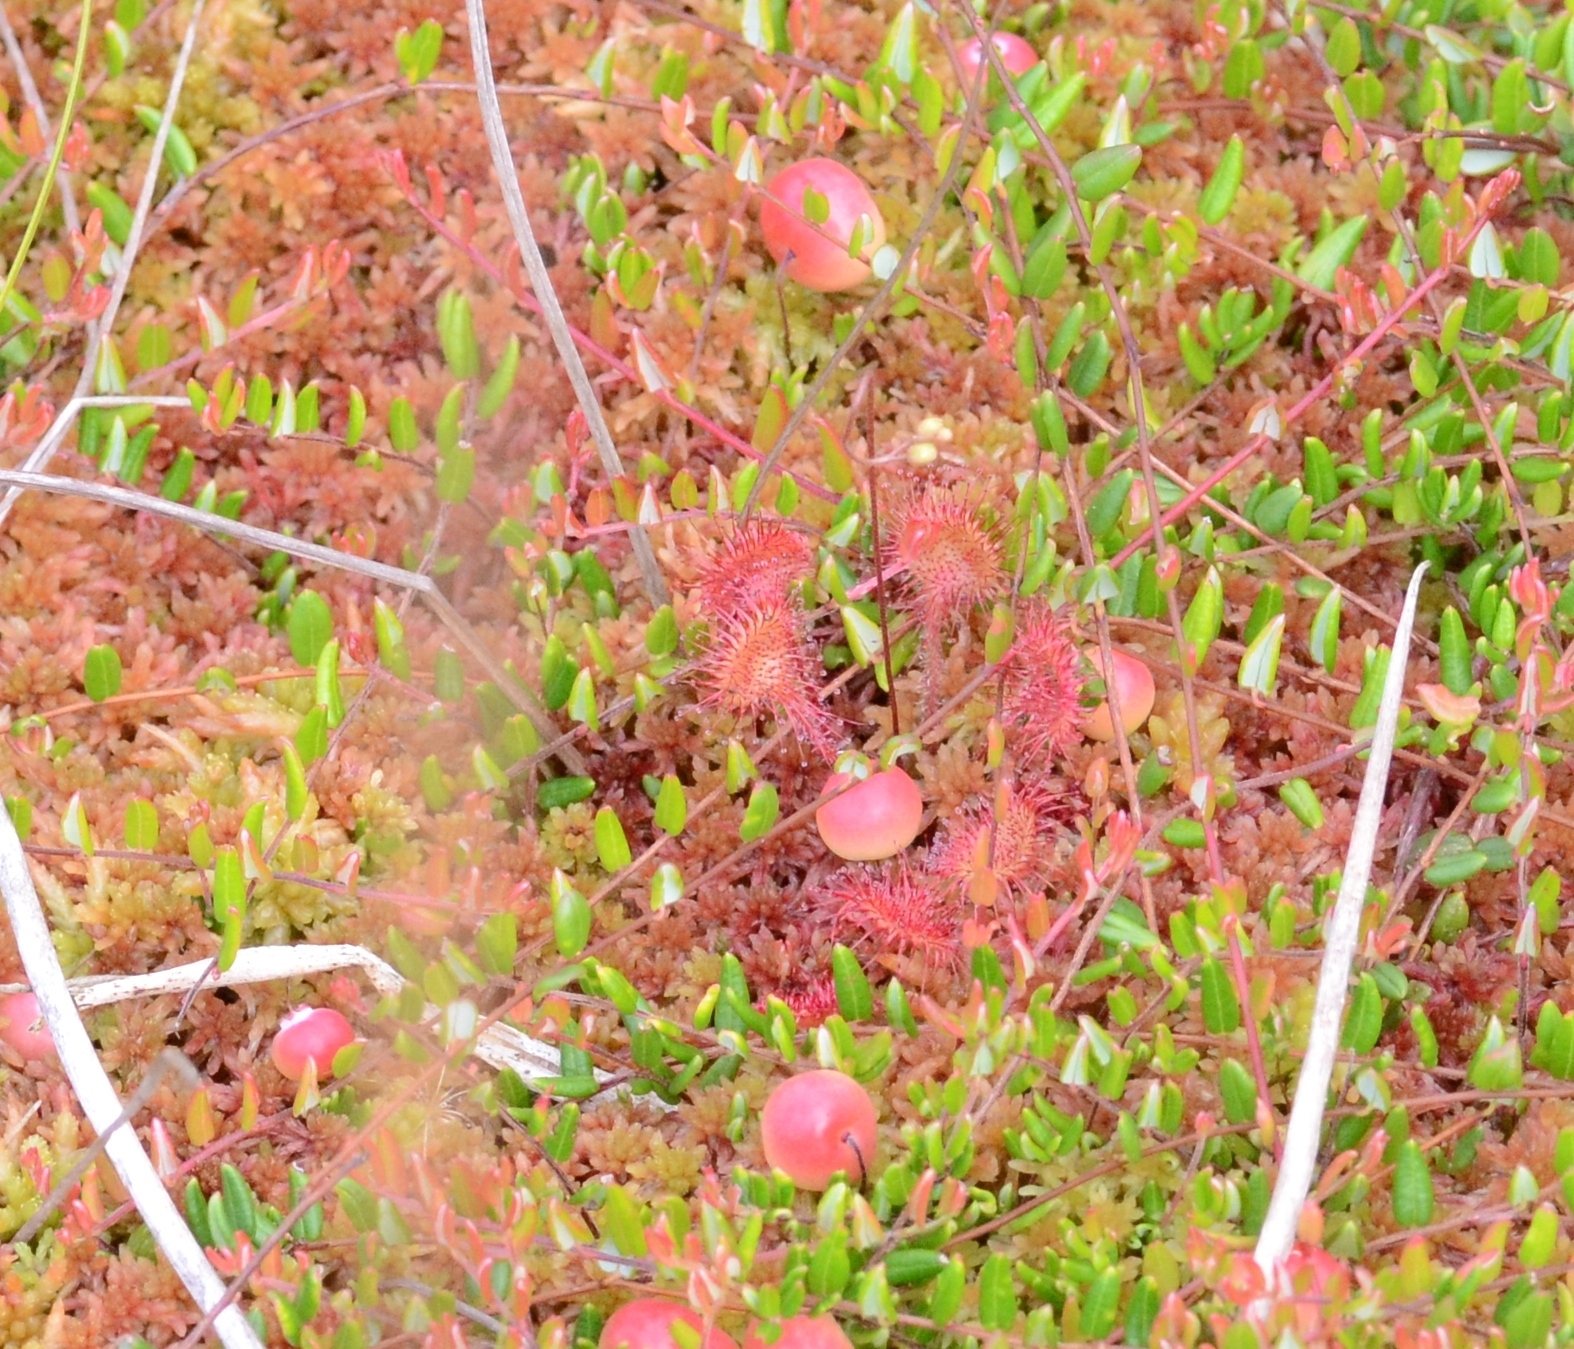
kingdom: Plantae
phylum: Tracheophyta
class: Magnoliopsida
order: Caryophyllales
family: Droseraceae
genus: Drosera
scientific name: Drosera rotundifolia
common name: Round-leaved sundew
